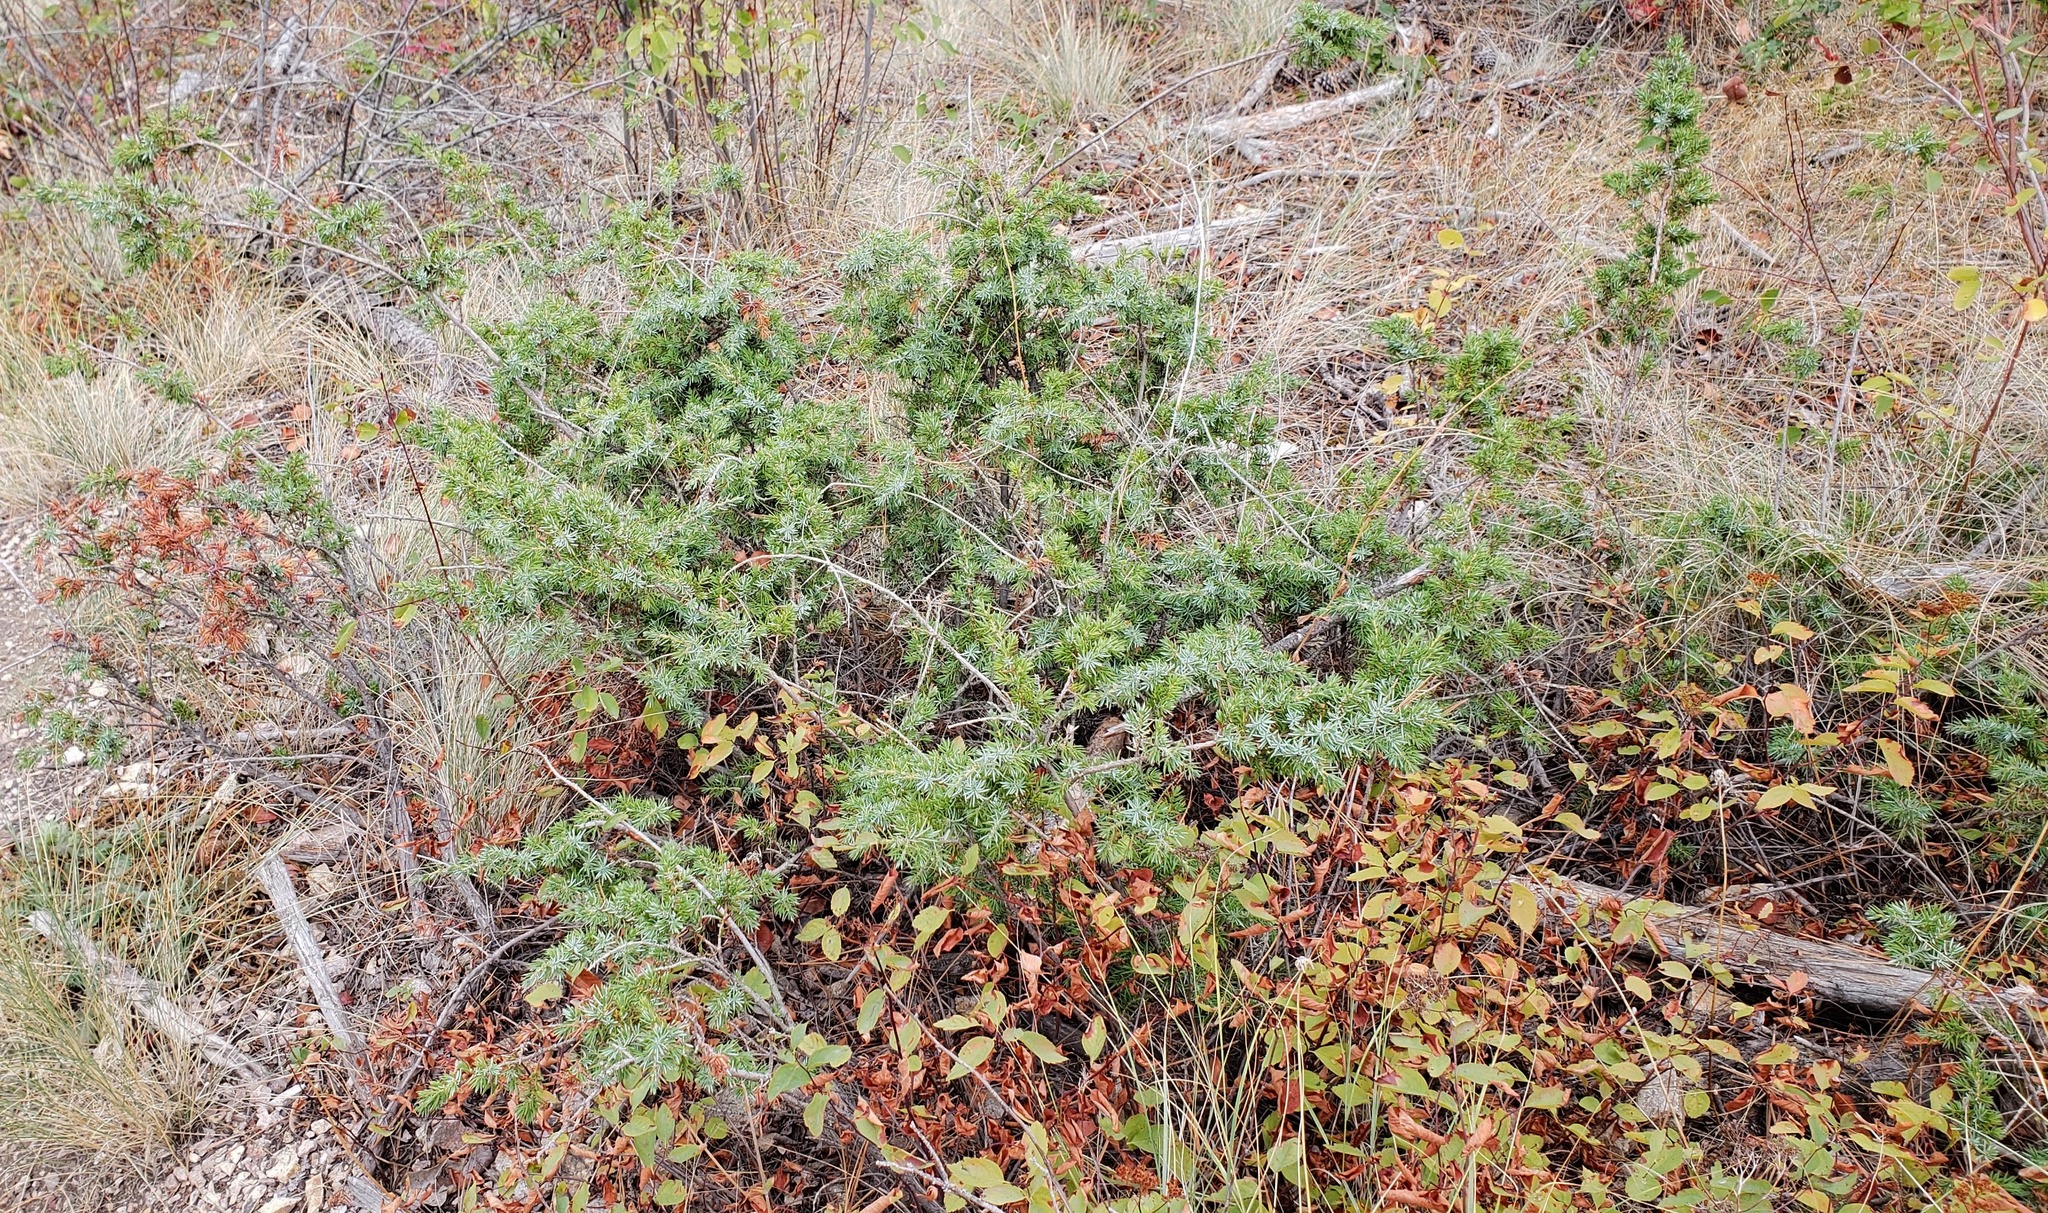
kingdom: Plantae
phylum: Tracheophyta
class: Pinopsida
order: Pinales
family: Cupressaceae
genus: Juniperus
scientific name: Juniperus communis
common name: Common juniper
